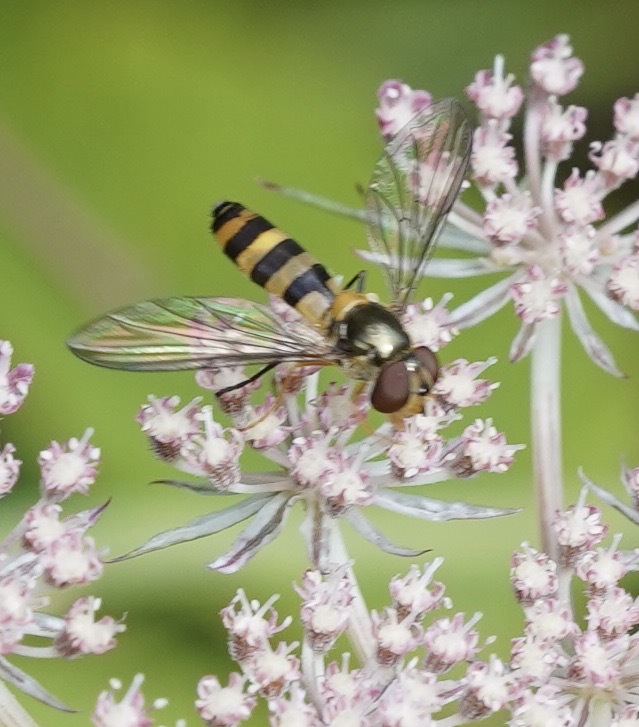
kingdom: Animalia
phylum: Arthropoda
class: Insecta
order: Diptera
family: Syrphidae
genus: Meliscaeva
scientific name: Meliscaeva cinctella
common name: American thintail fly
